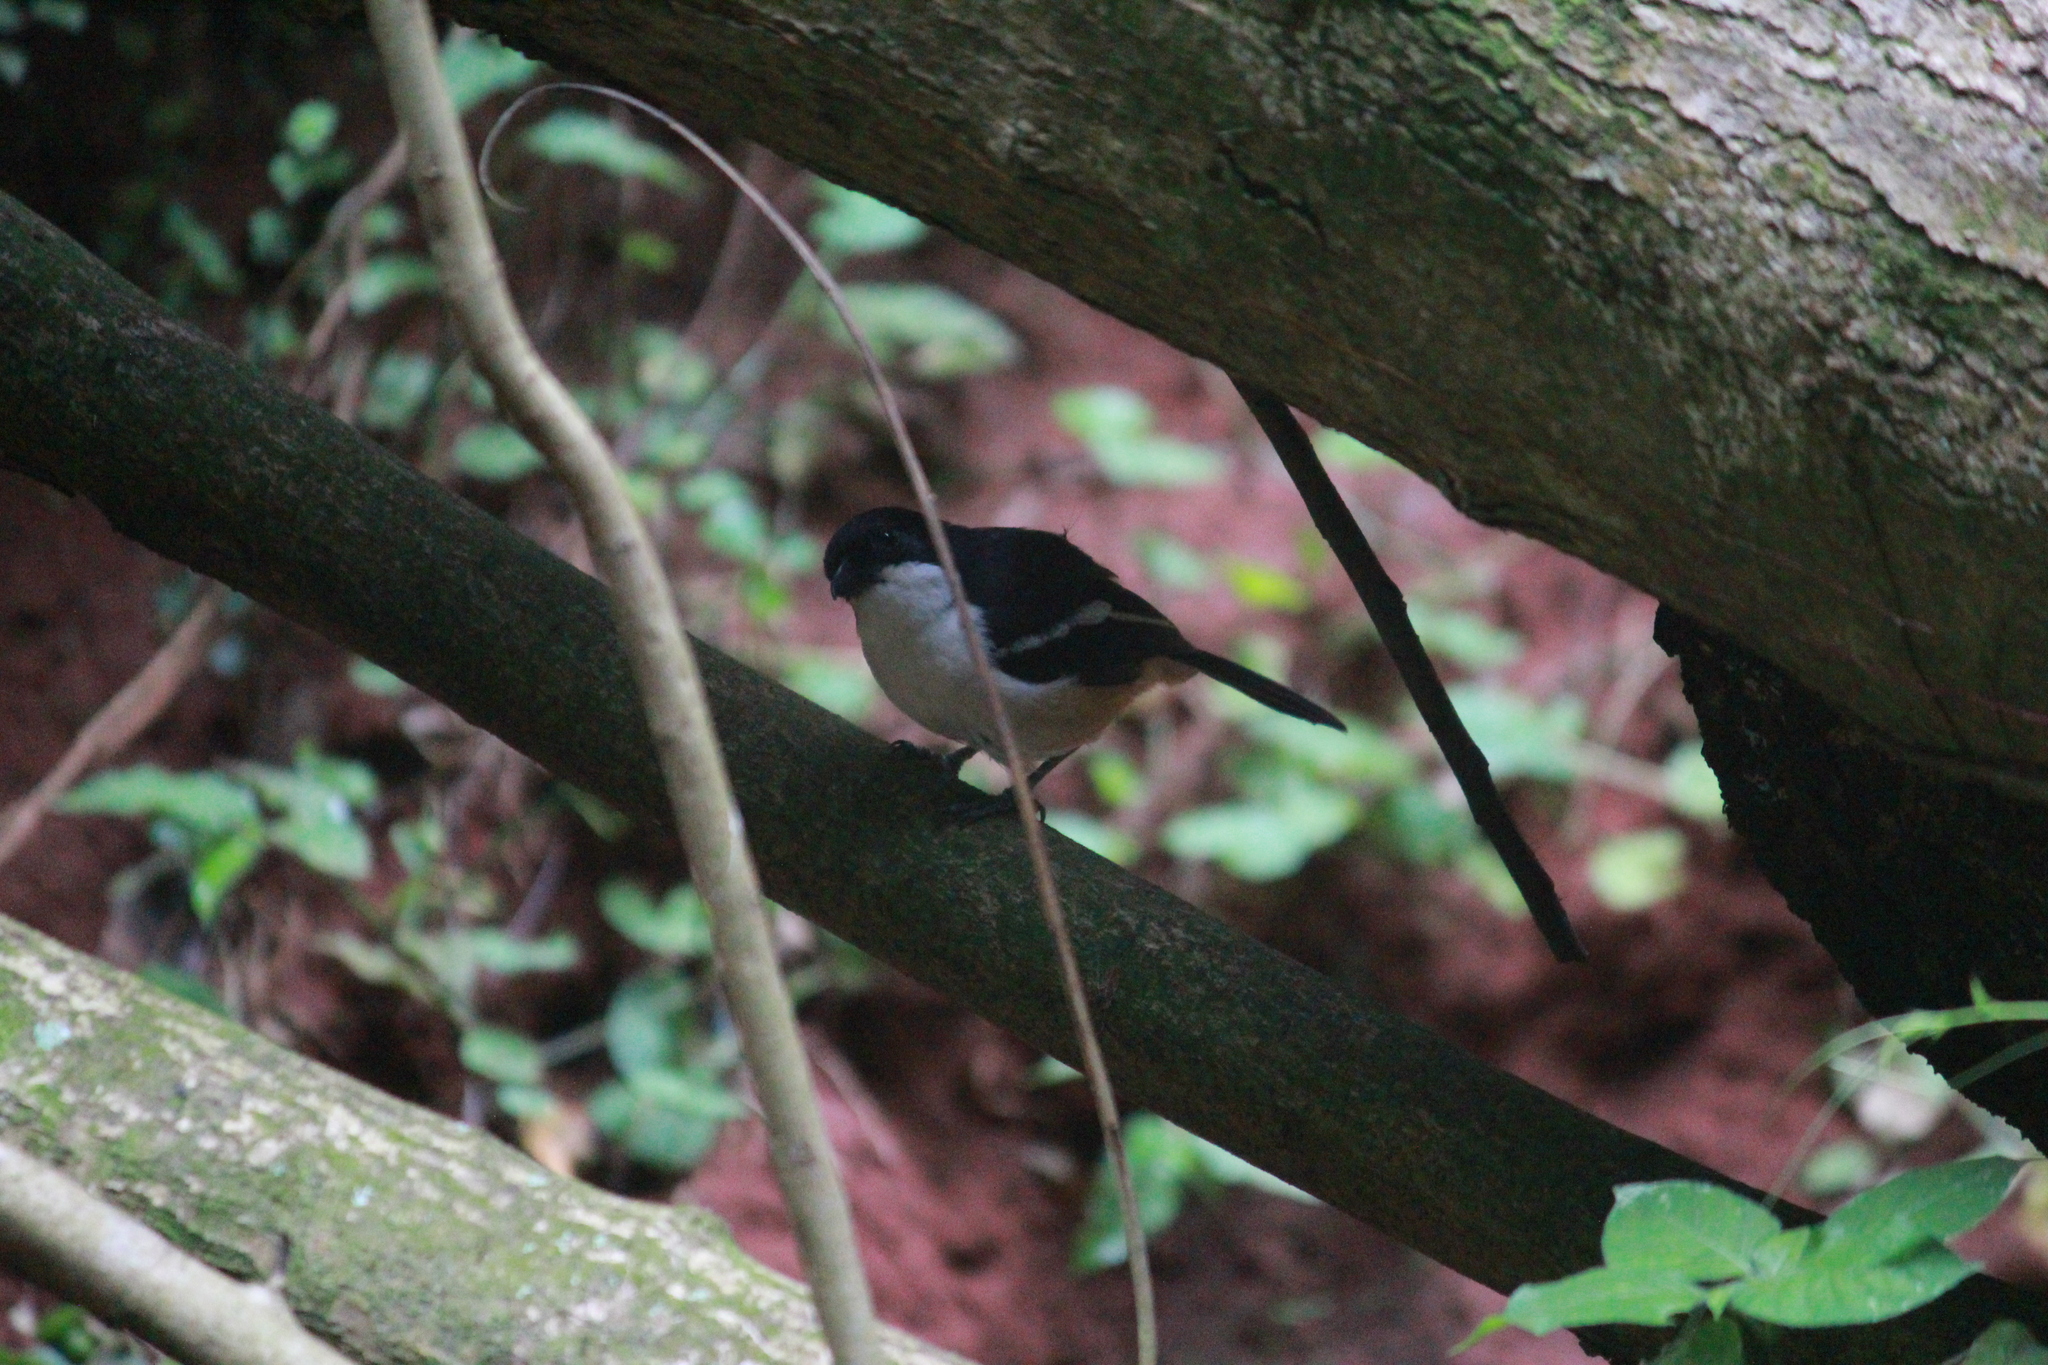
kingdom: Animalia
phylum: Chordata
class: Aves
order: Passeriformes
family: Malaconotidae
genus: Laniarius
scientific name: Laniarius ferrugineus
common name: Southern boubou
